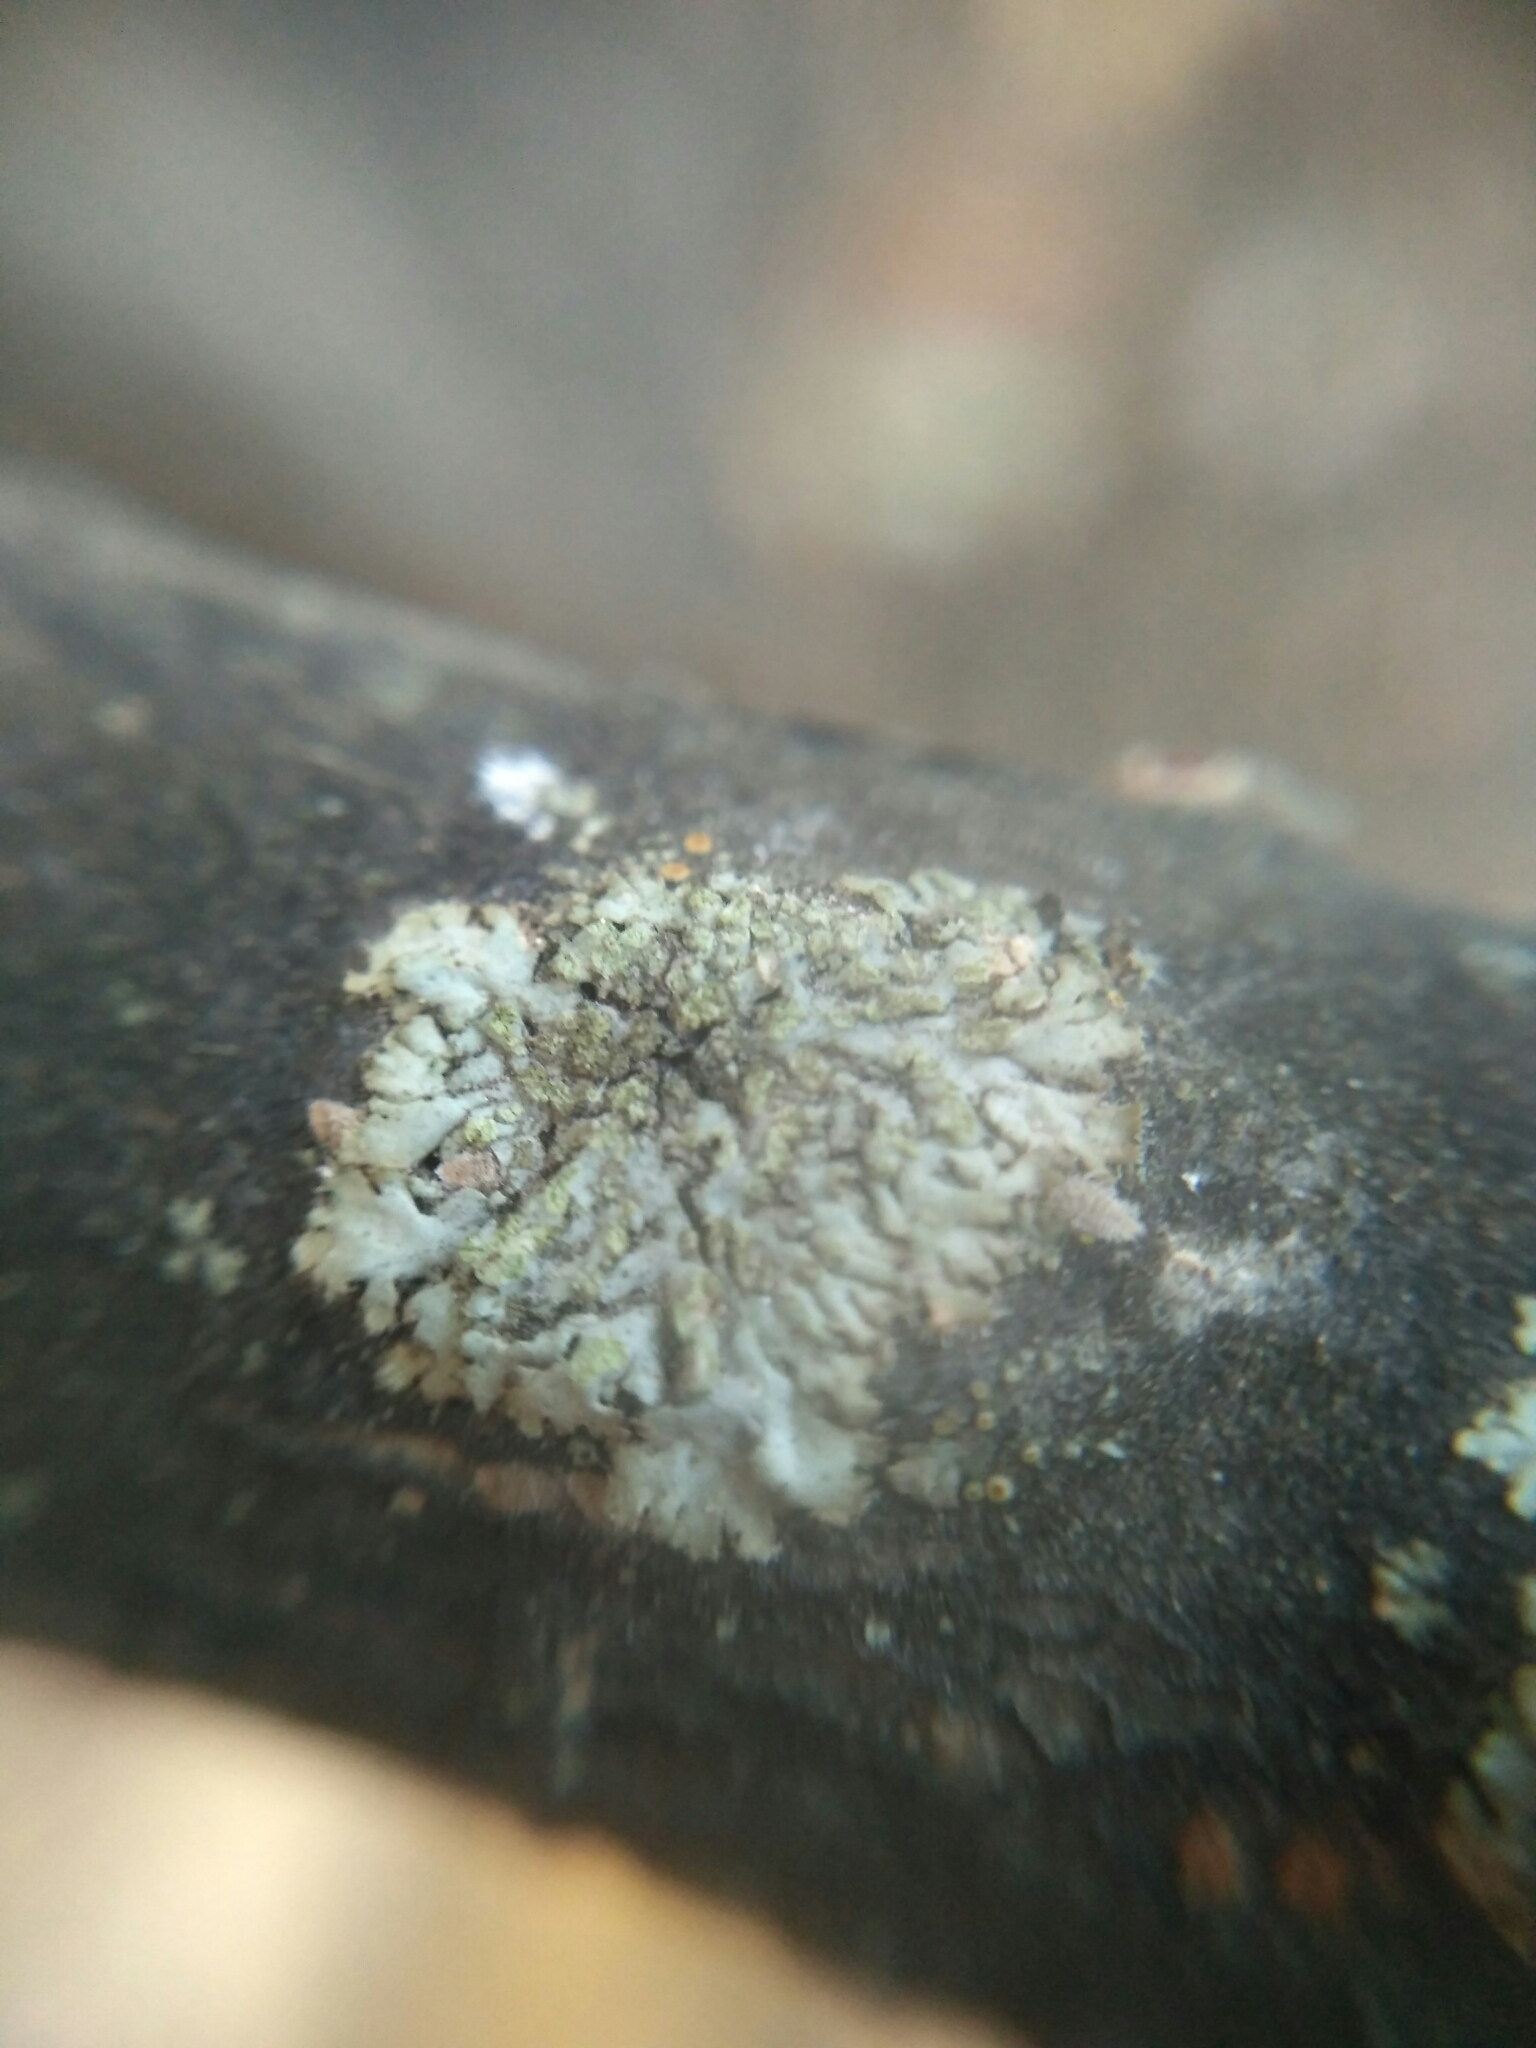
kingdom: Fungi
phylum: Ascomycota
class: Lecanoromycetes
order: Caliciales
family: Physciaceae
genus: Phaeophyscia
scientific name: Phaeophyscia orbicularis
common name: Mealy shadow lichen
